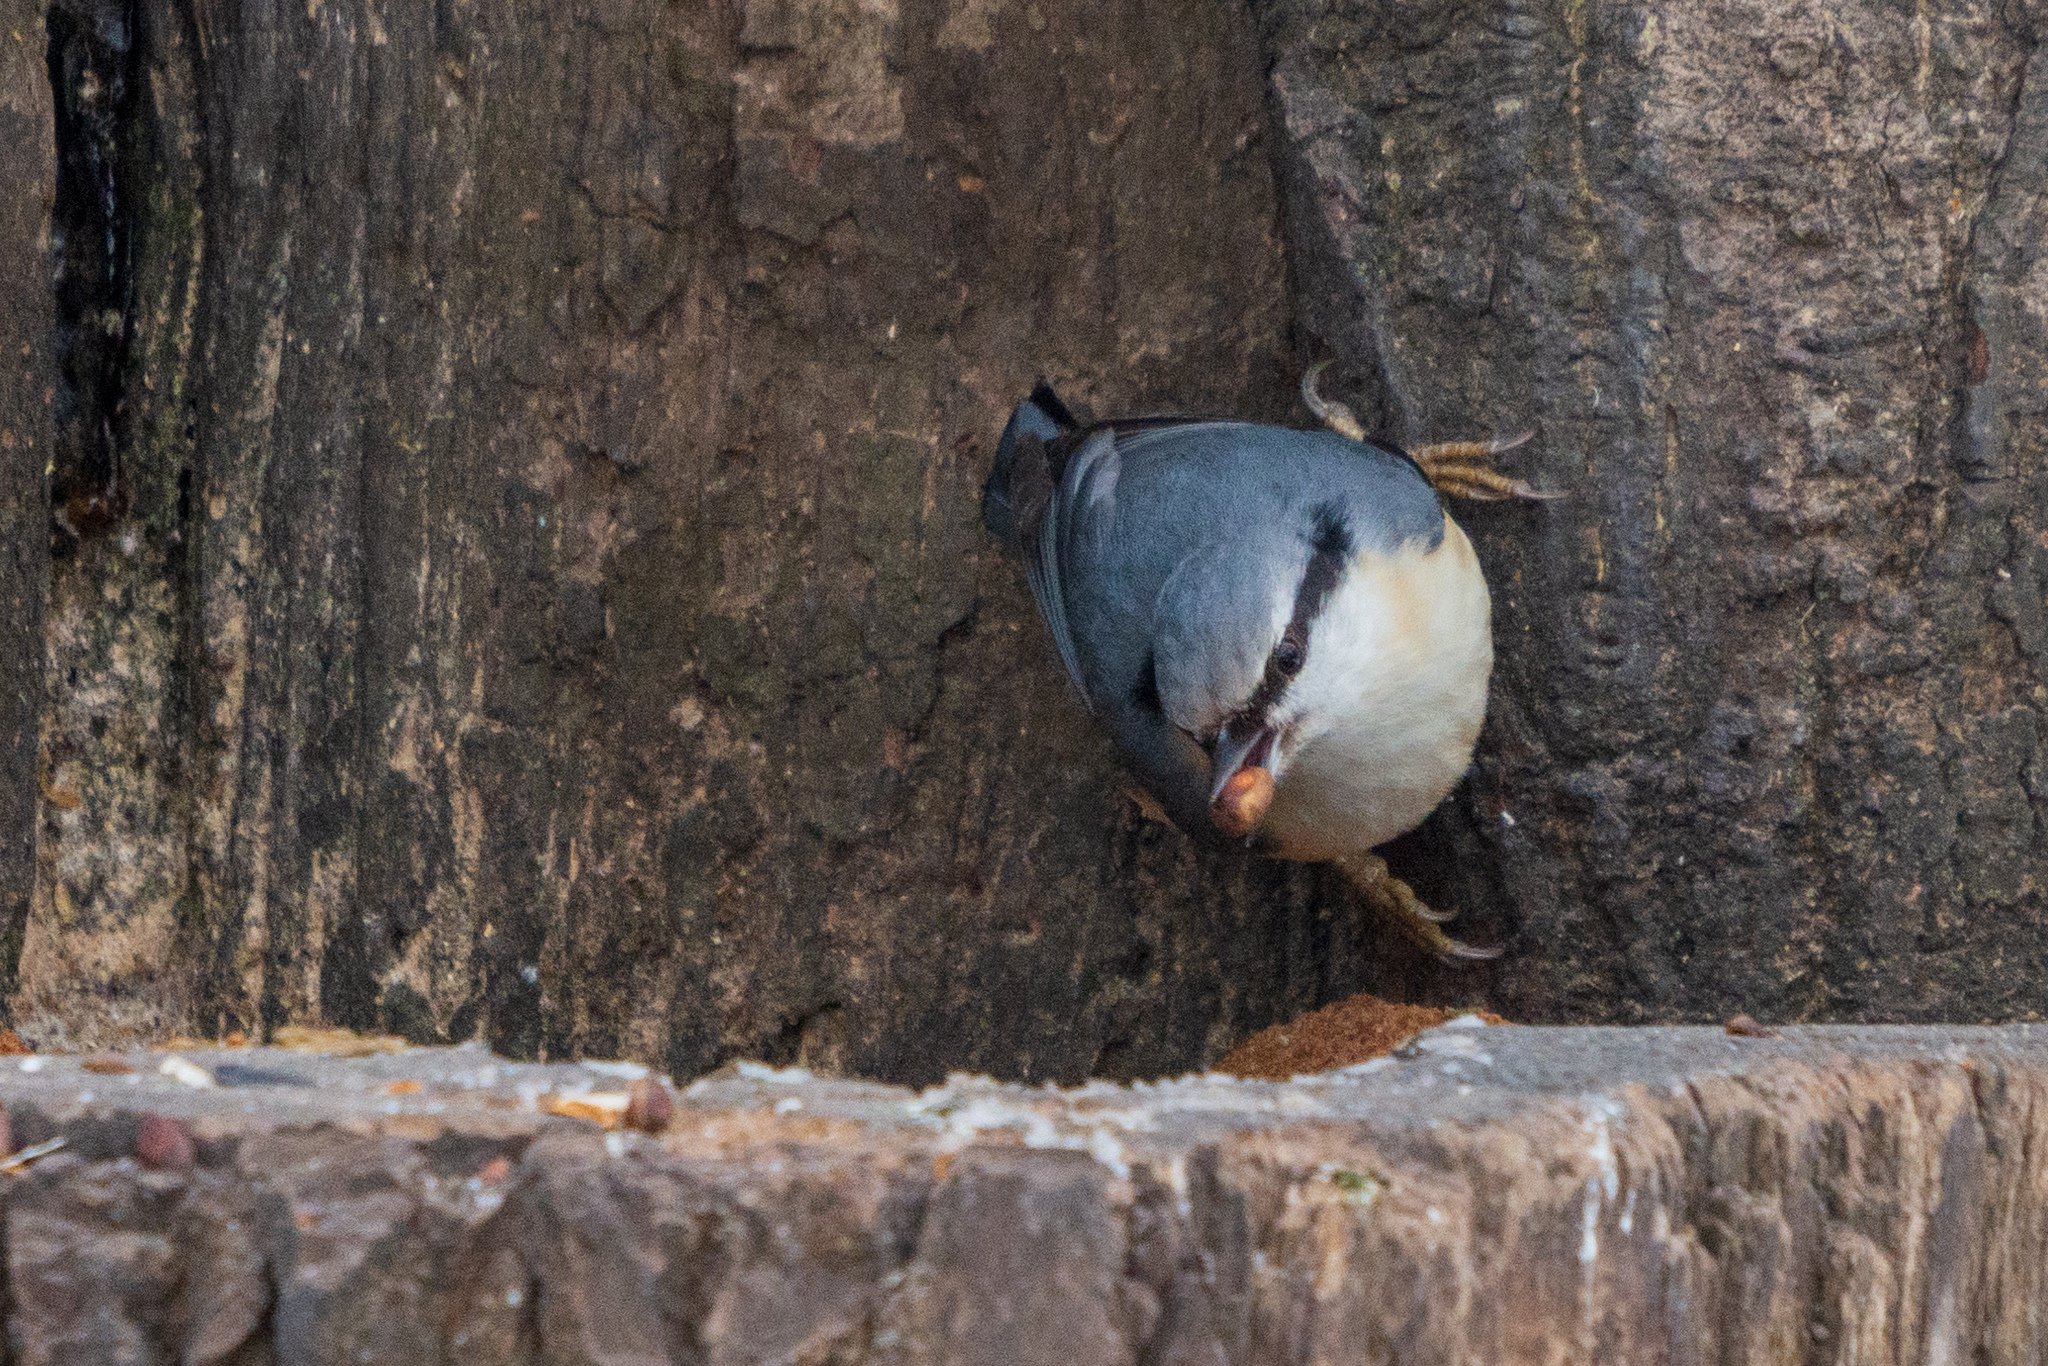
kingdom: Animalia
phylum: Chordata
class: Aves
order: Passeriformes
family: Sittidae
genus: Sitta
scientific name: Sitta europaea
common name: Eurasian nuthatch
